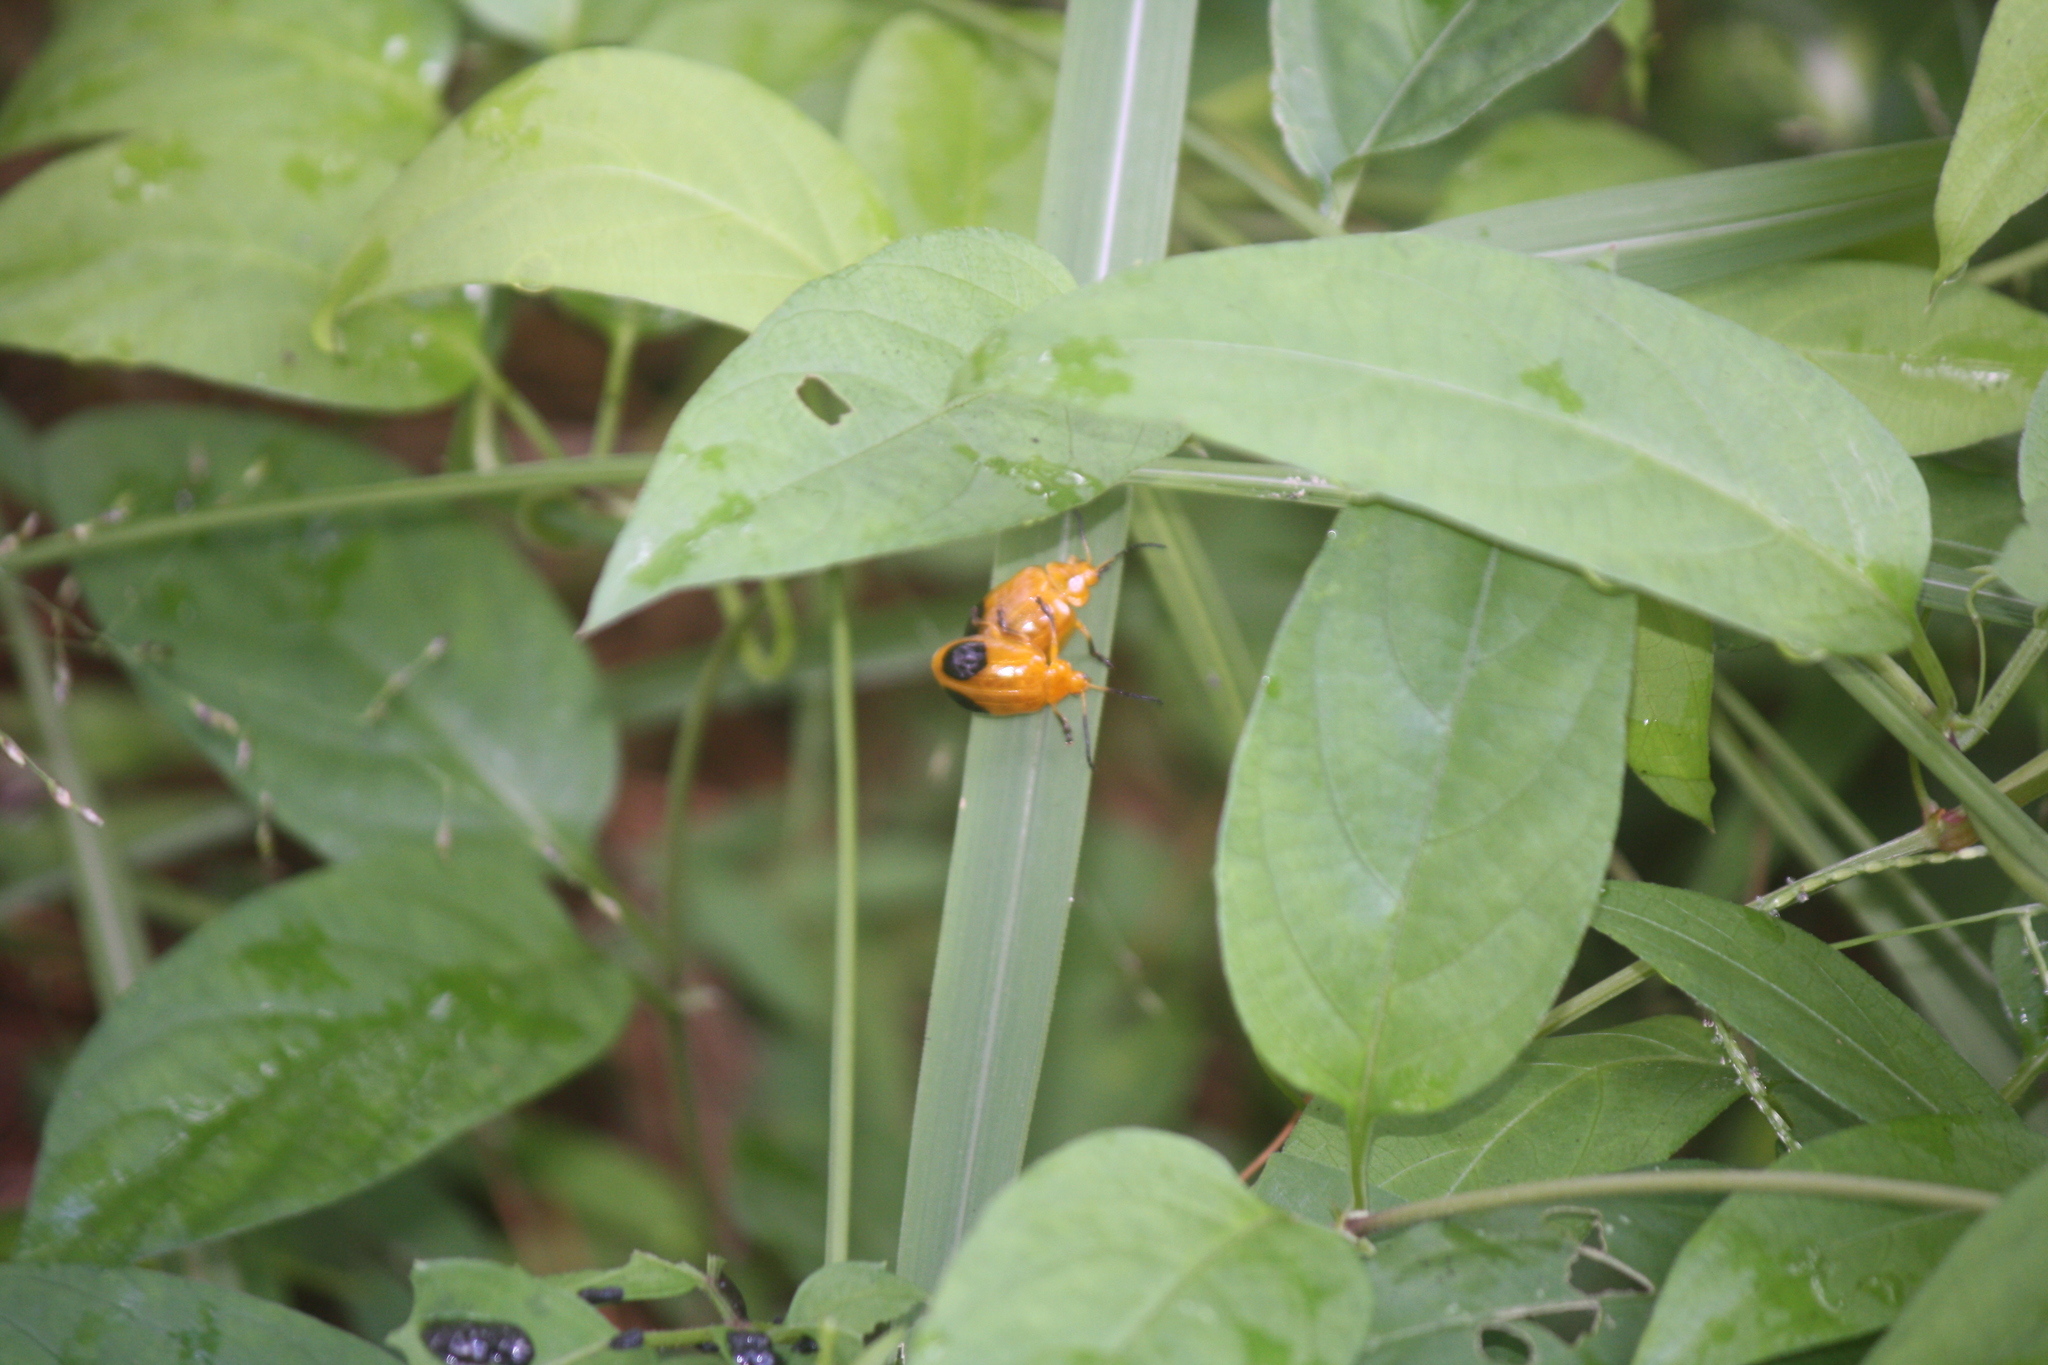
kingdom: Animalia
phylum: Arthropoda
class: Insecta
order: Coleoptera
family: Chrysomelidae
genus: Oides
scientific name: Oides palleata
